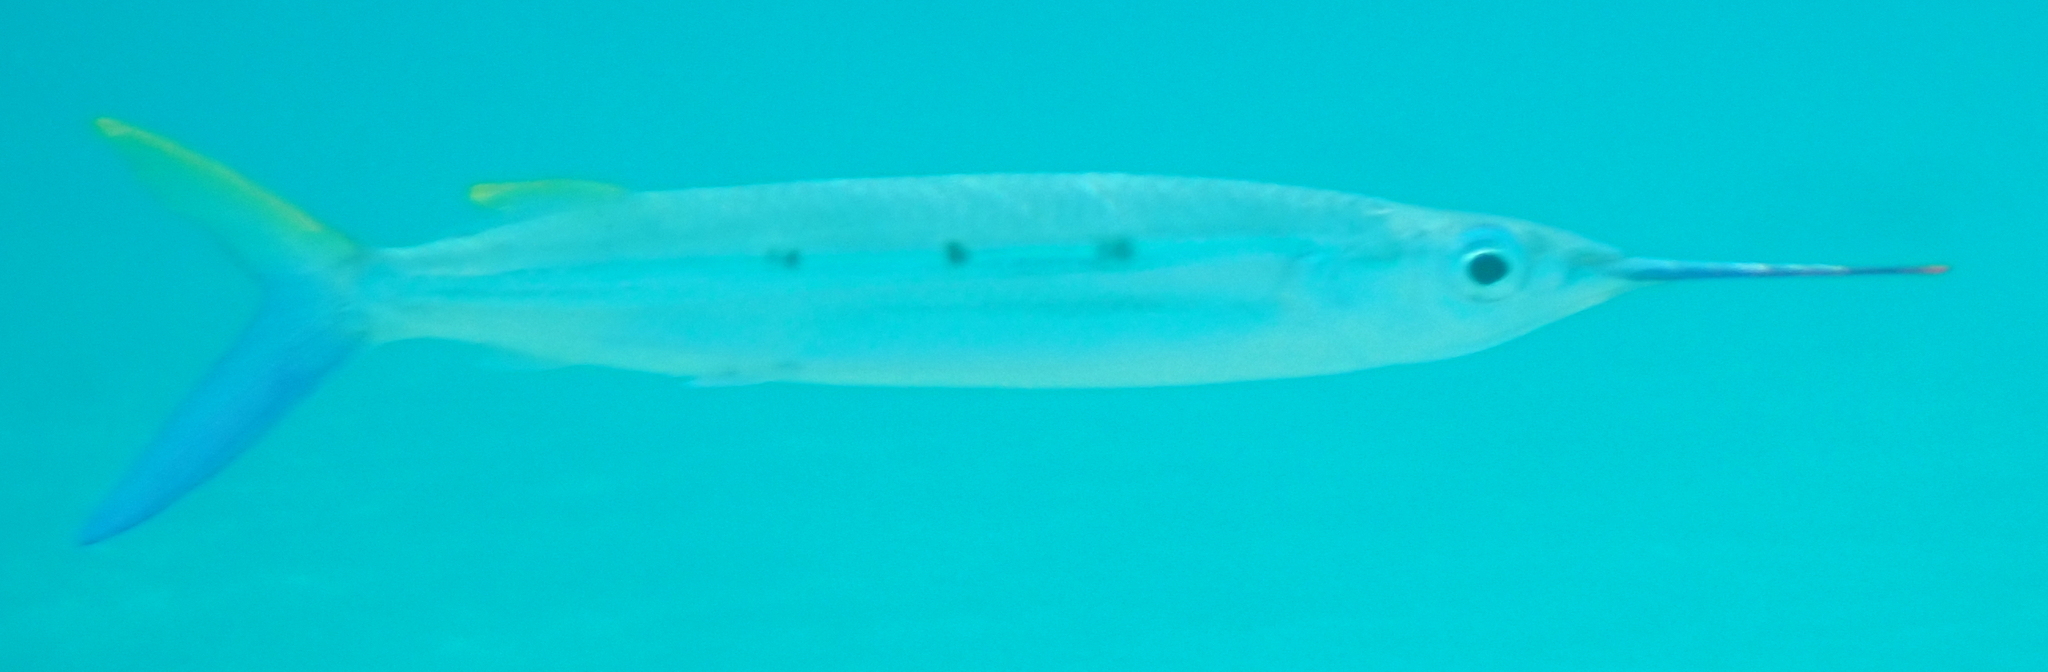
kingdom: Animalia
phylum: Chordata
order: Beloniformes
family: Hemiramphidae
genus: Hemiramphus
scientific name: Hemiramphus far
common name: Black-barred halfbeak
